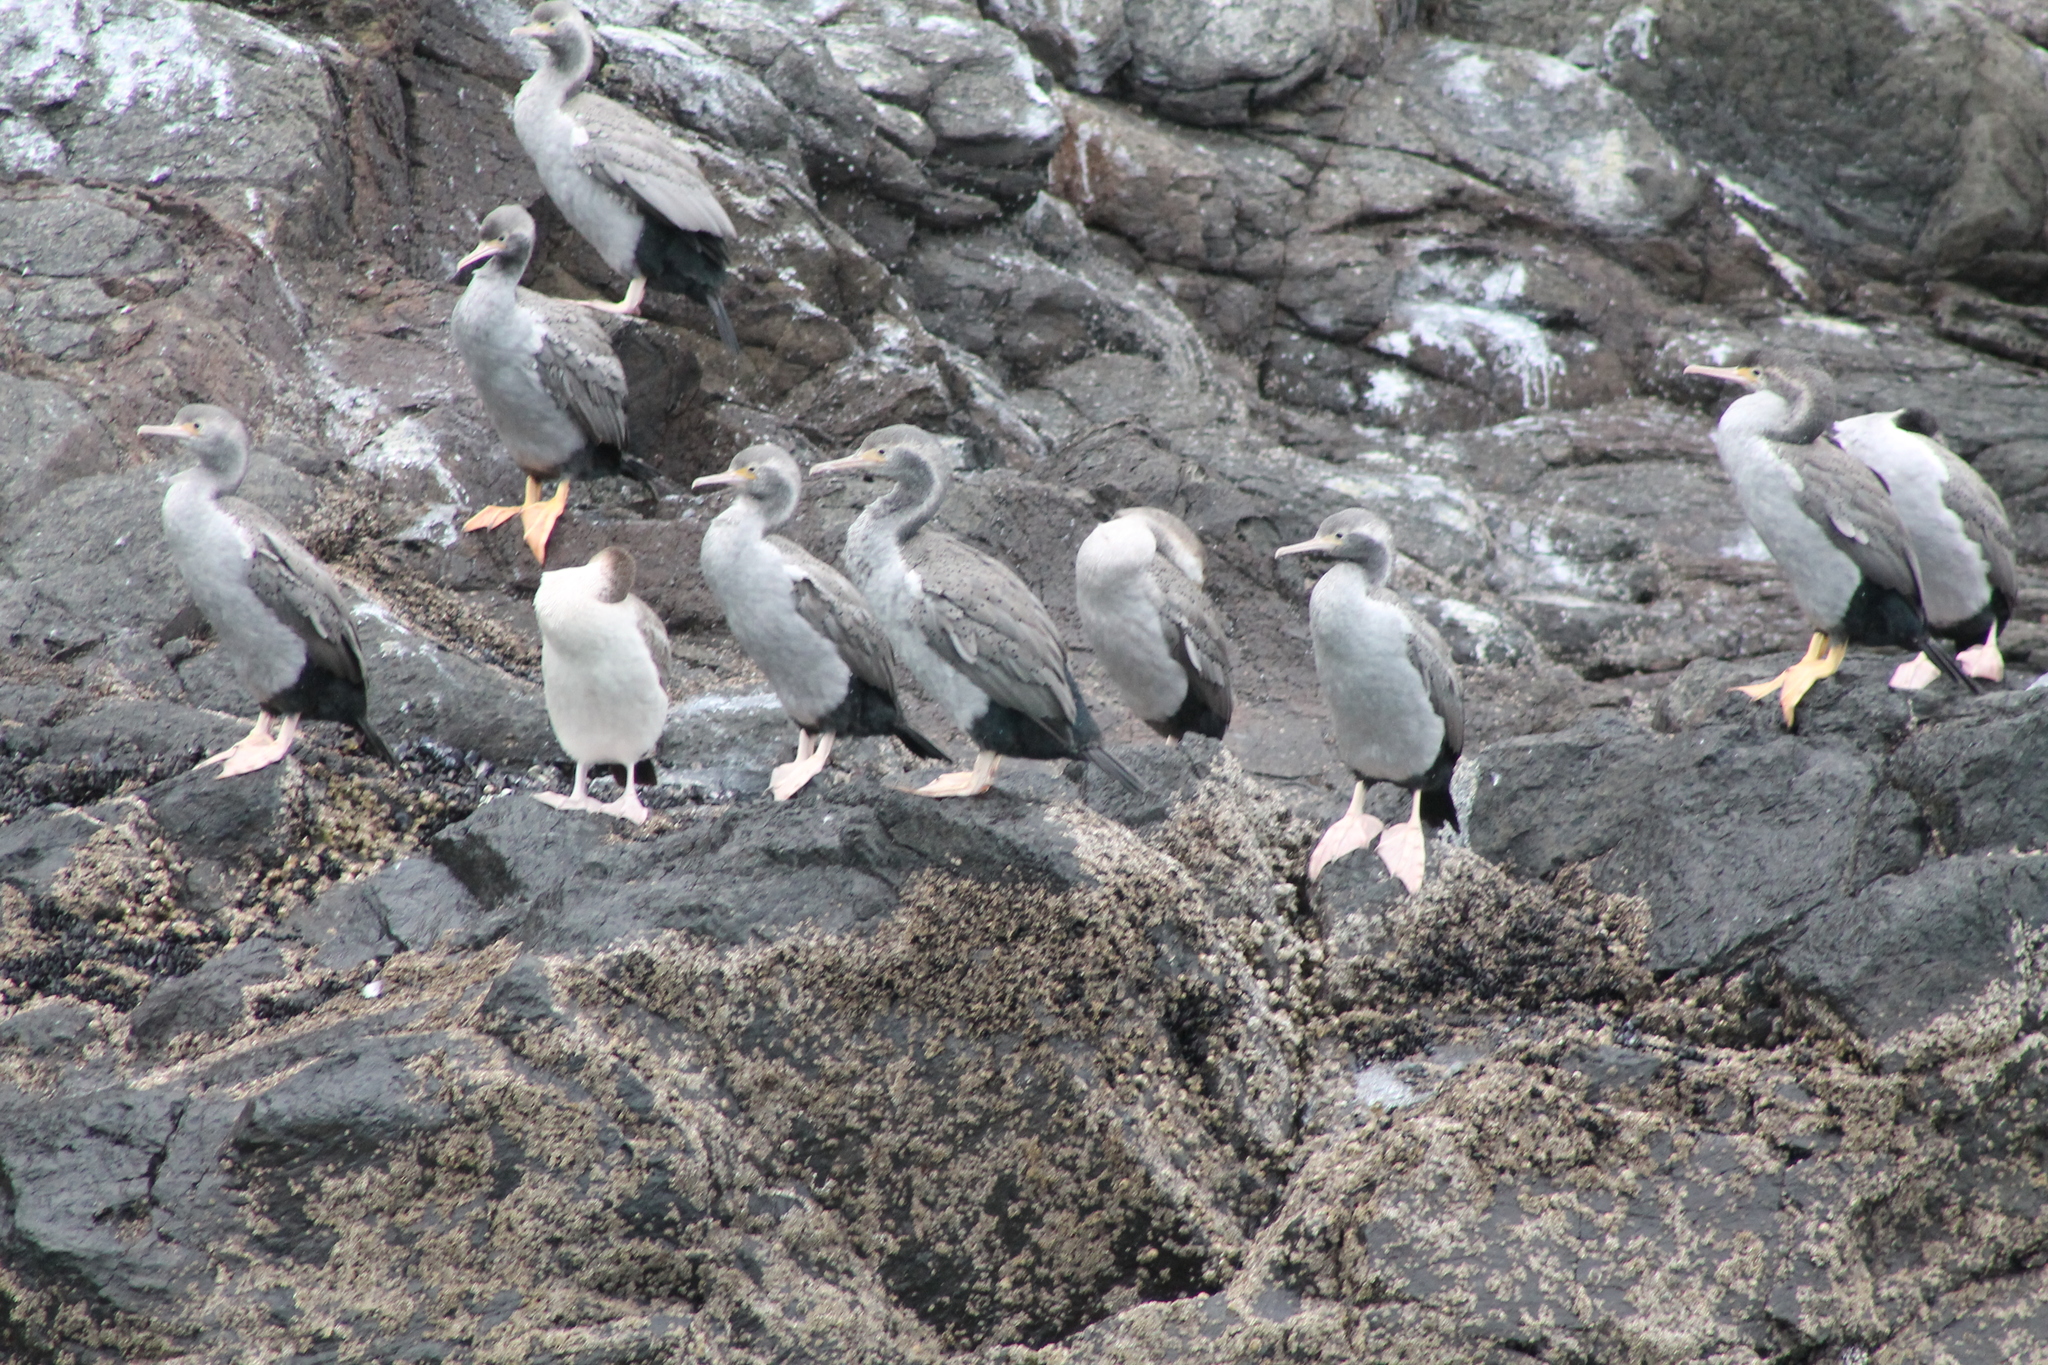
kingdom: Animalia
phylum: Chordata
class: Aves
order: Suliformes
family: Phalacrocoracidae
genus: Phalacrocorax
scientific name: Phalacrocorax punctatus
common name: Spotted shag
